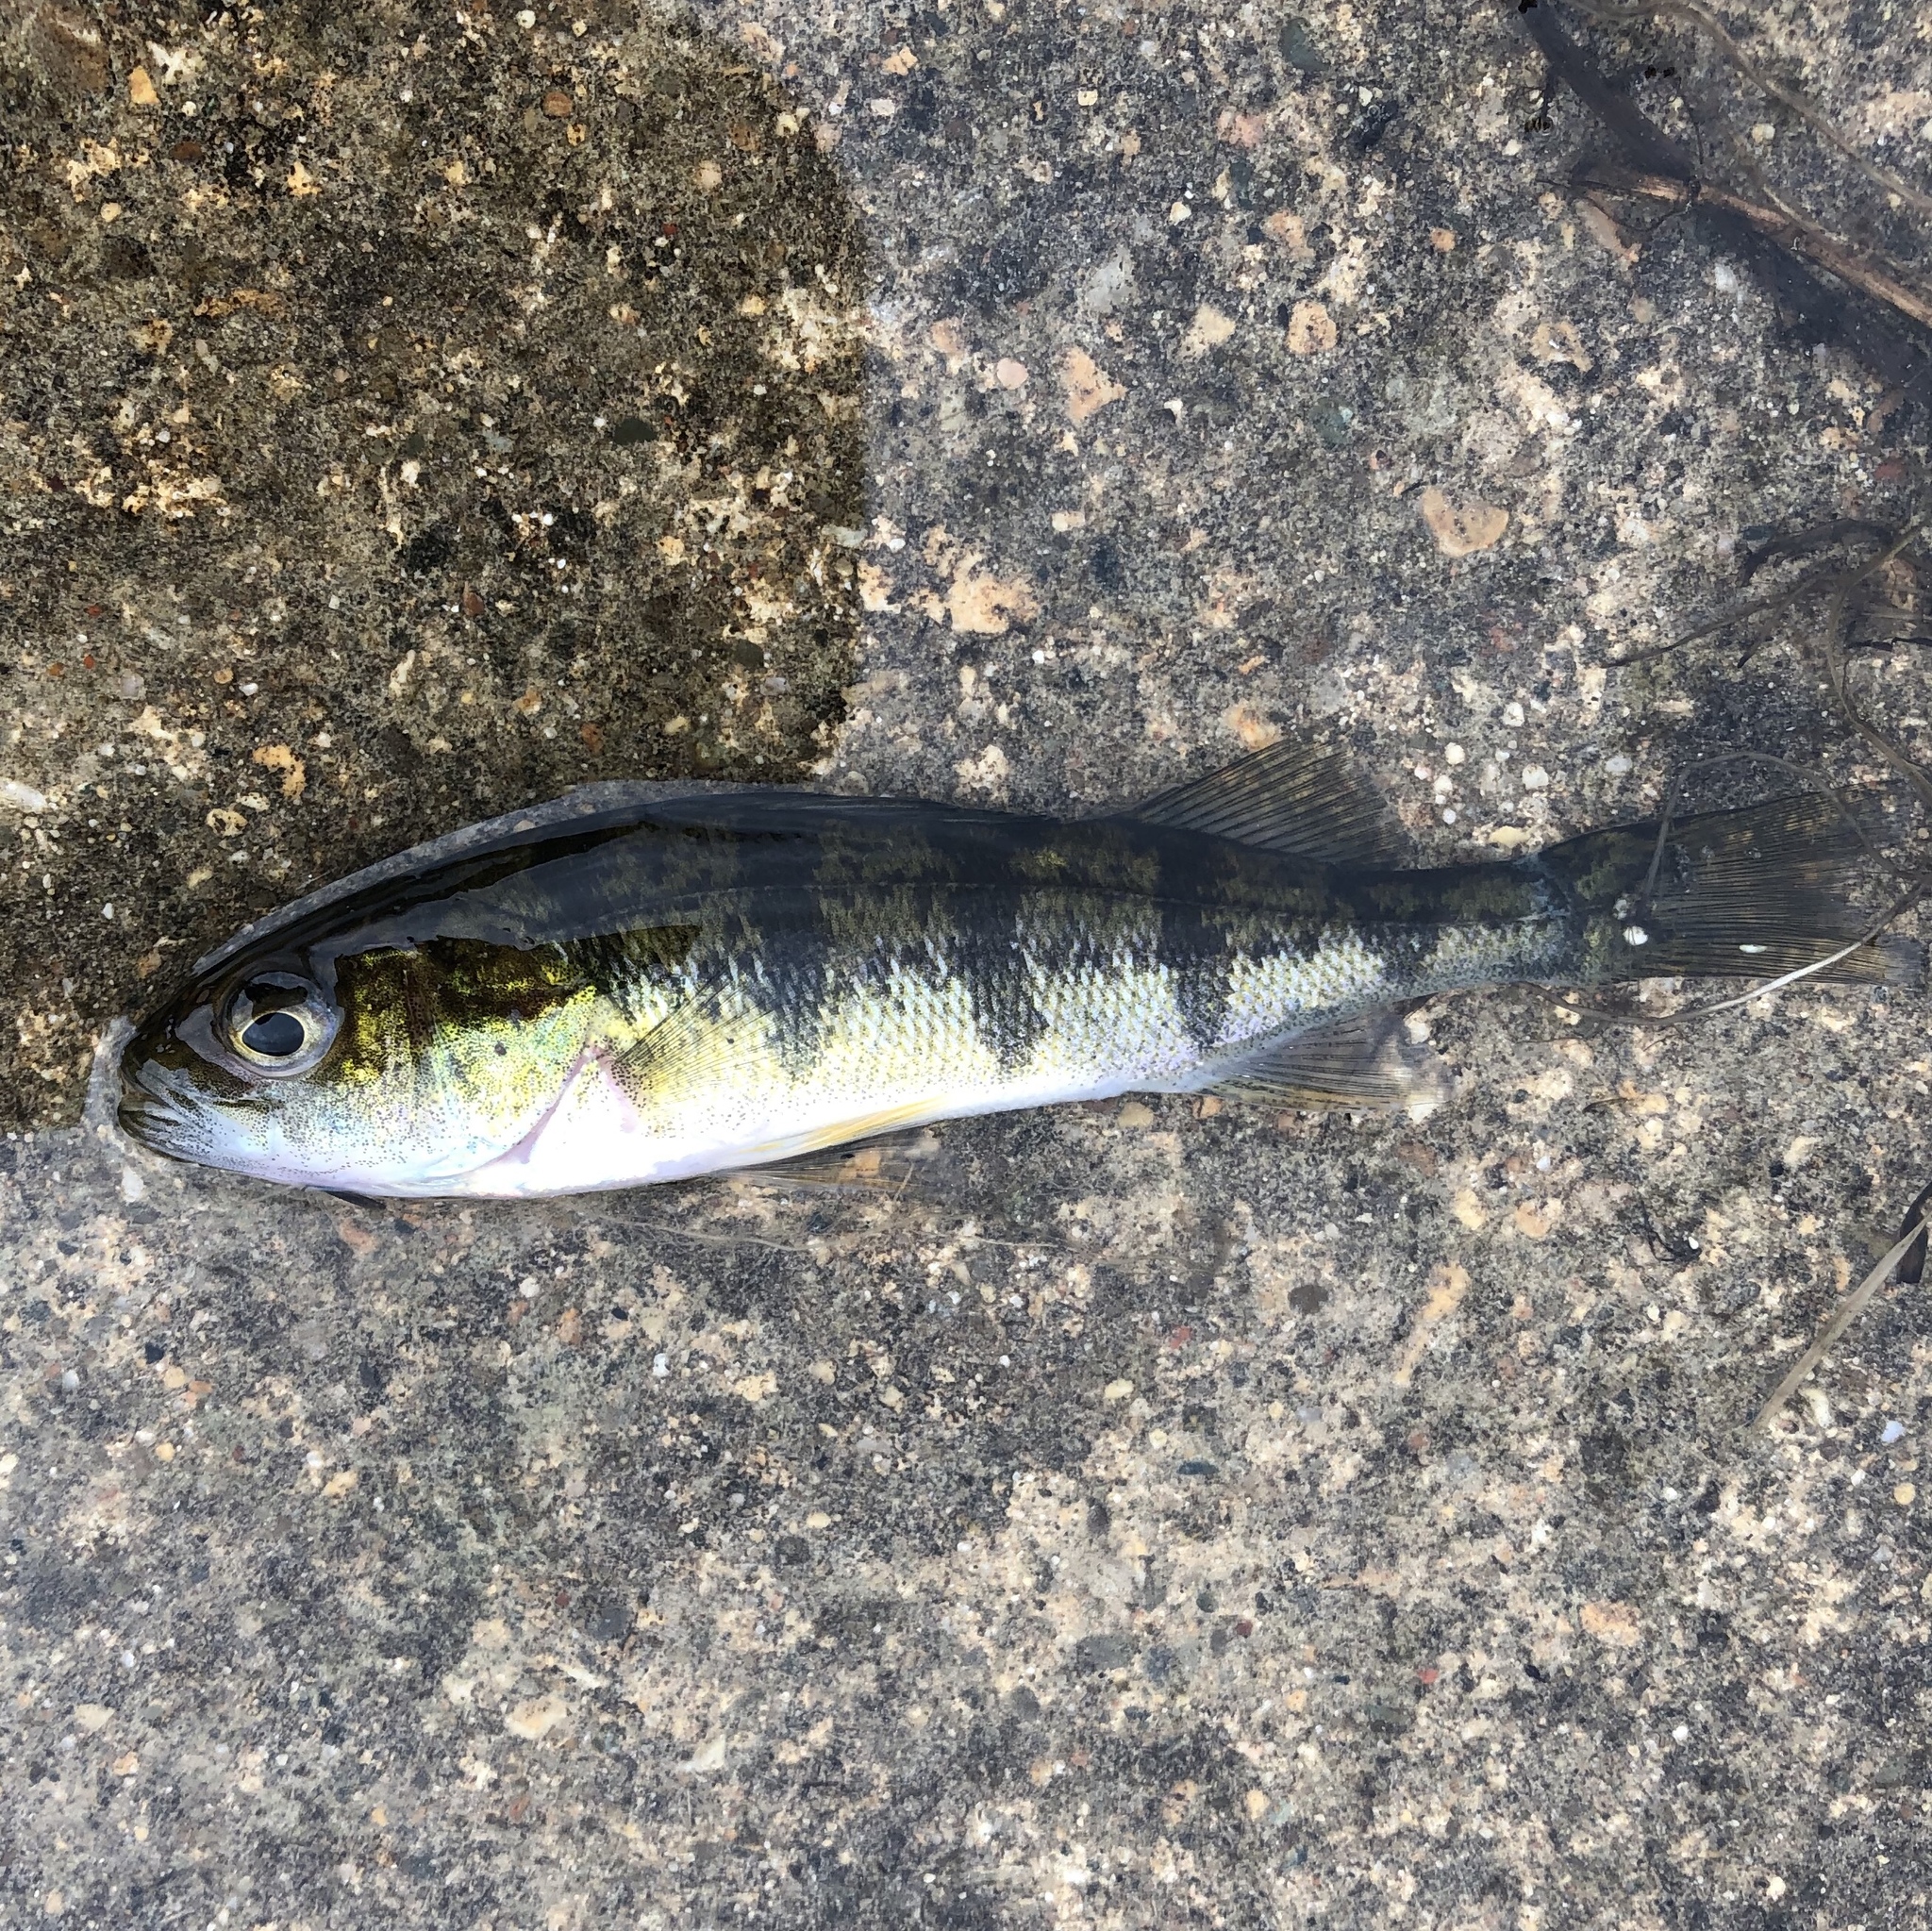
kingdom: Animalia
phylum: Chordata
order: Perciformes
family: Percidae
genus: Perca
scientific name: Perca flavescens
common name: Yellow perch
